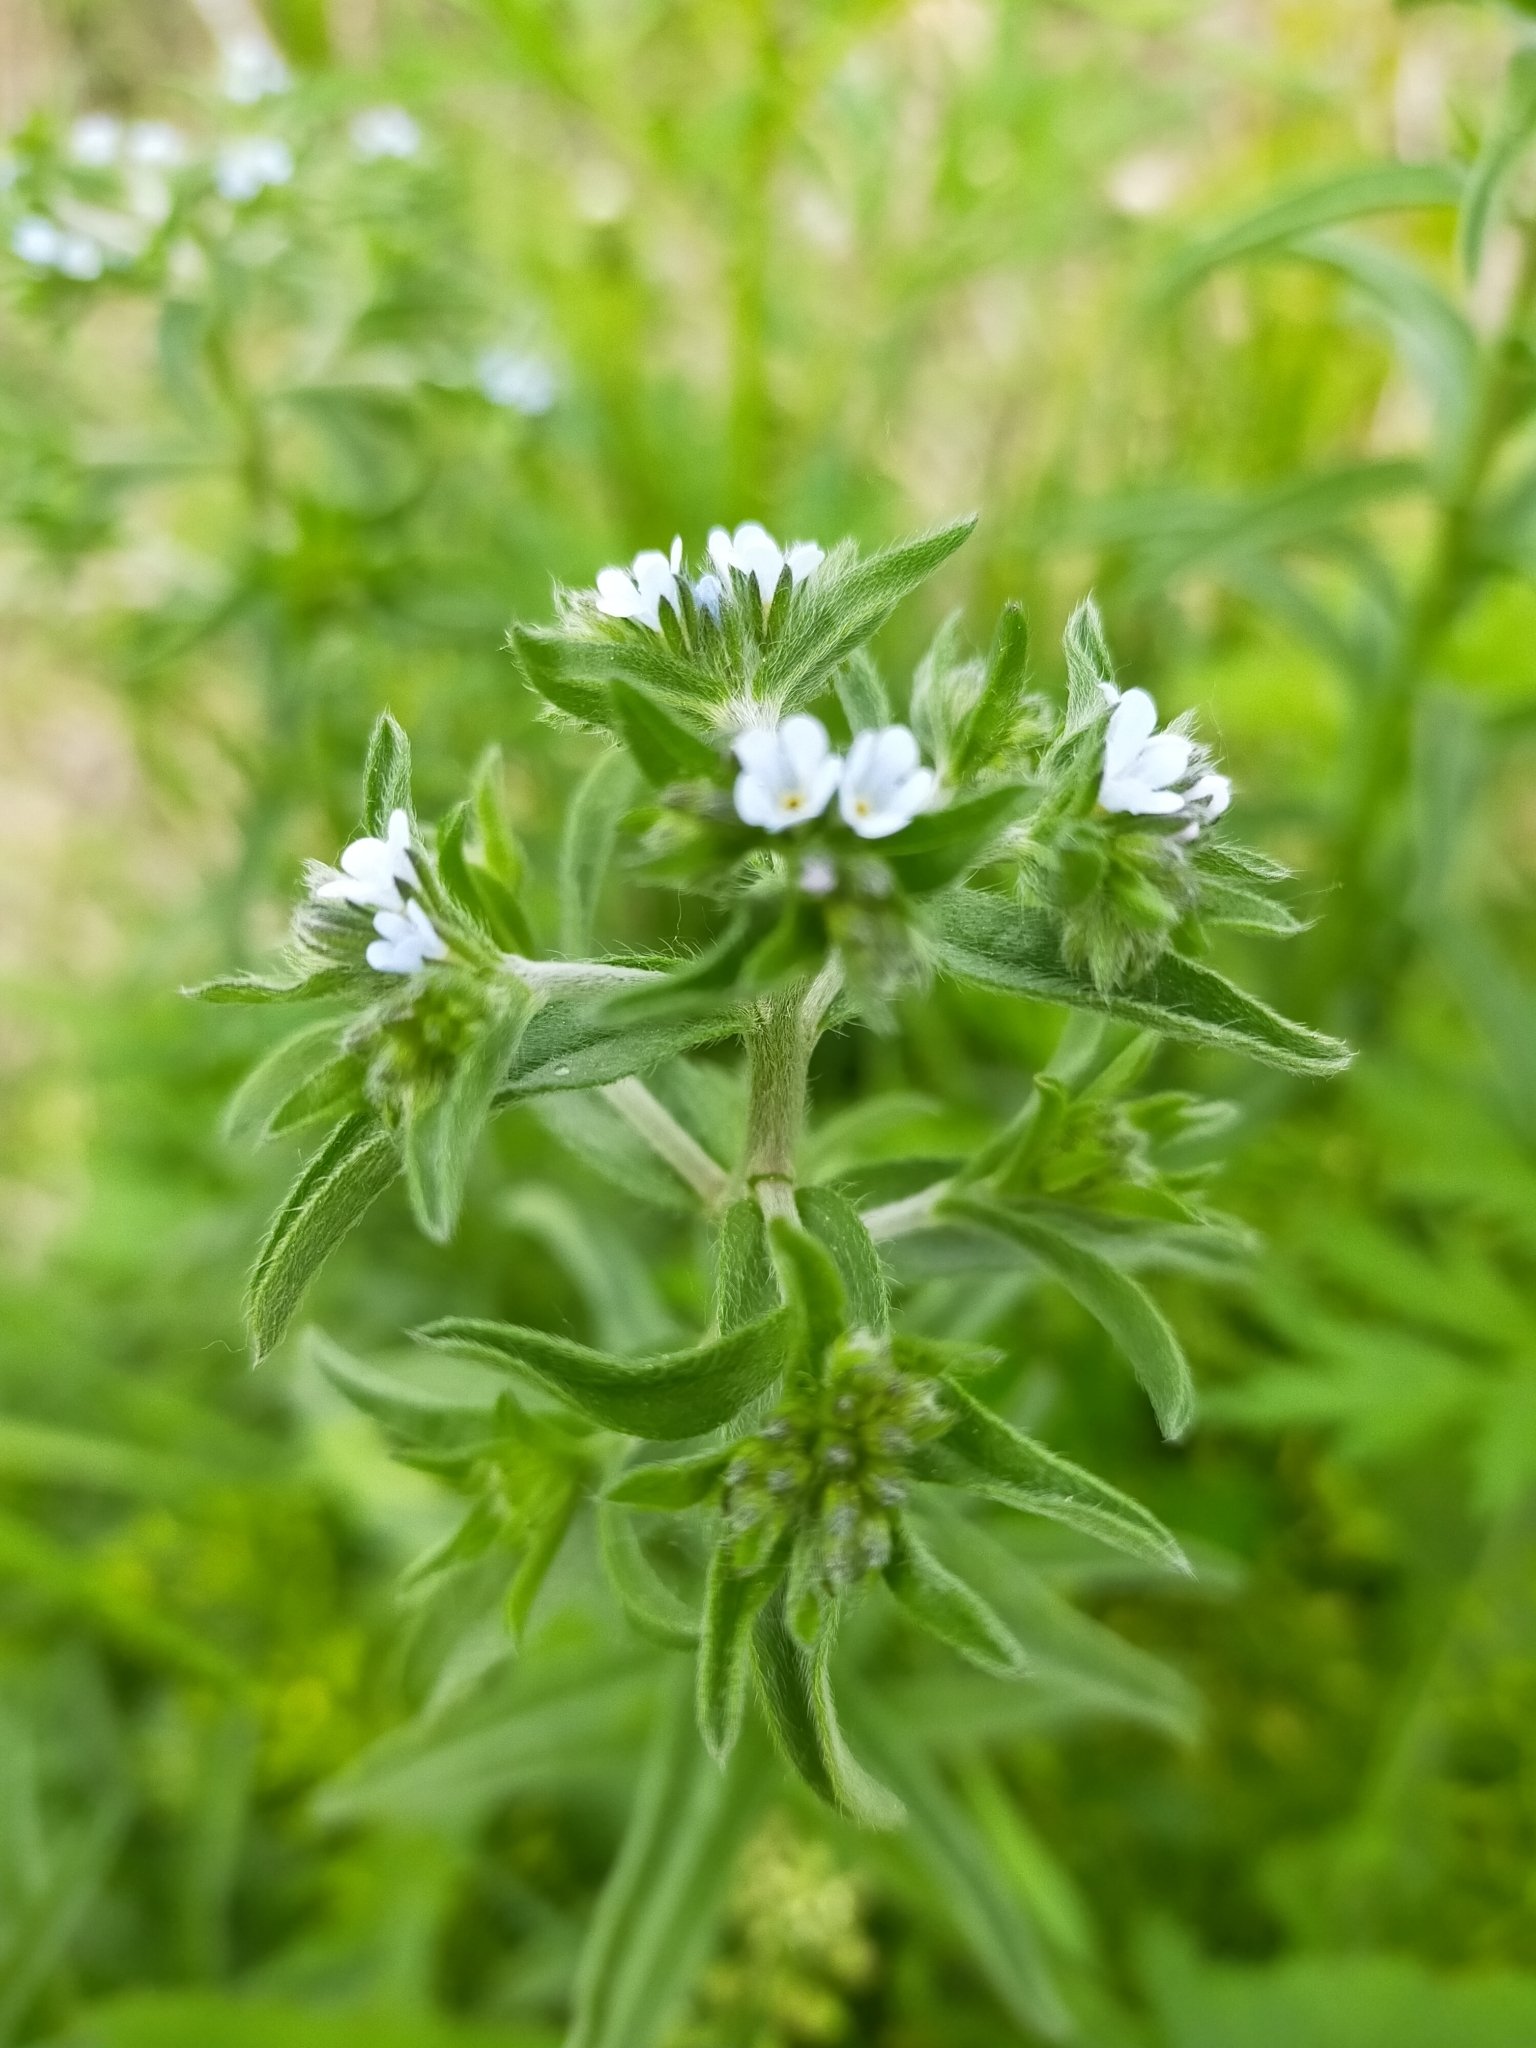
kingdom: Plantae
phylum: Tracheophyta
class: Magnoliopsida
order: Boraginales
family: Boraginaceae
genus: Lappula
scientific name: Lappula squarrosa
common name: European stickseed
